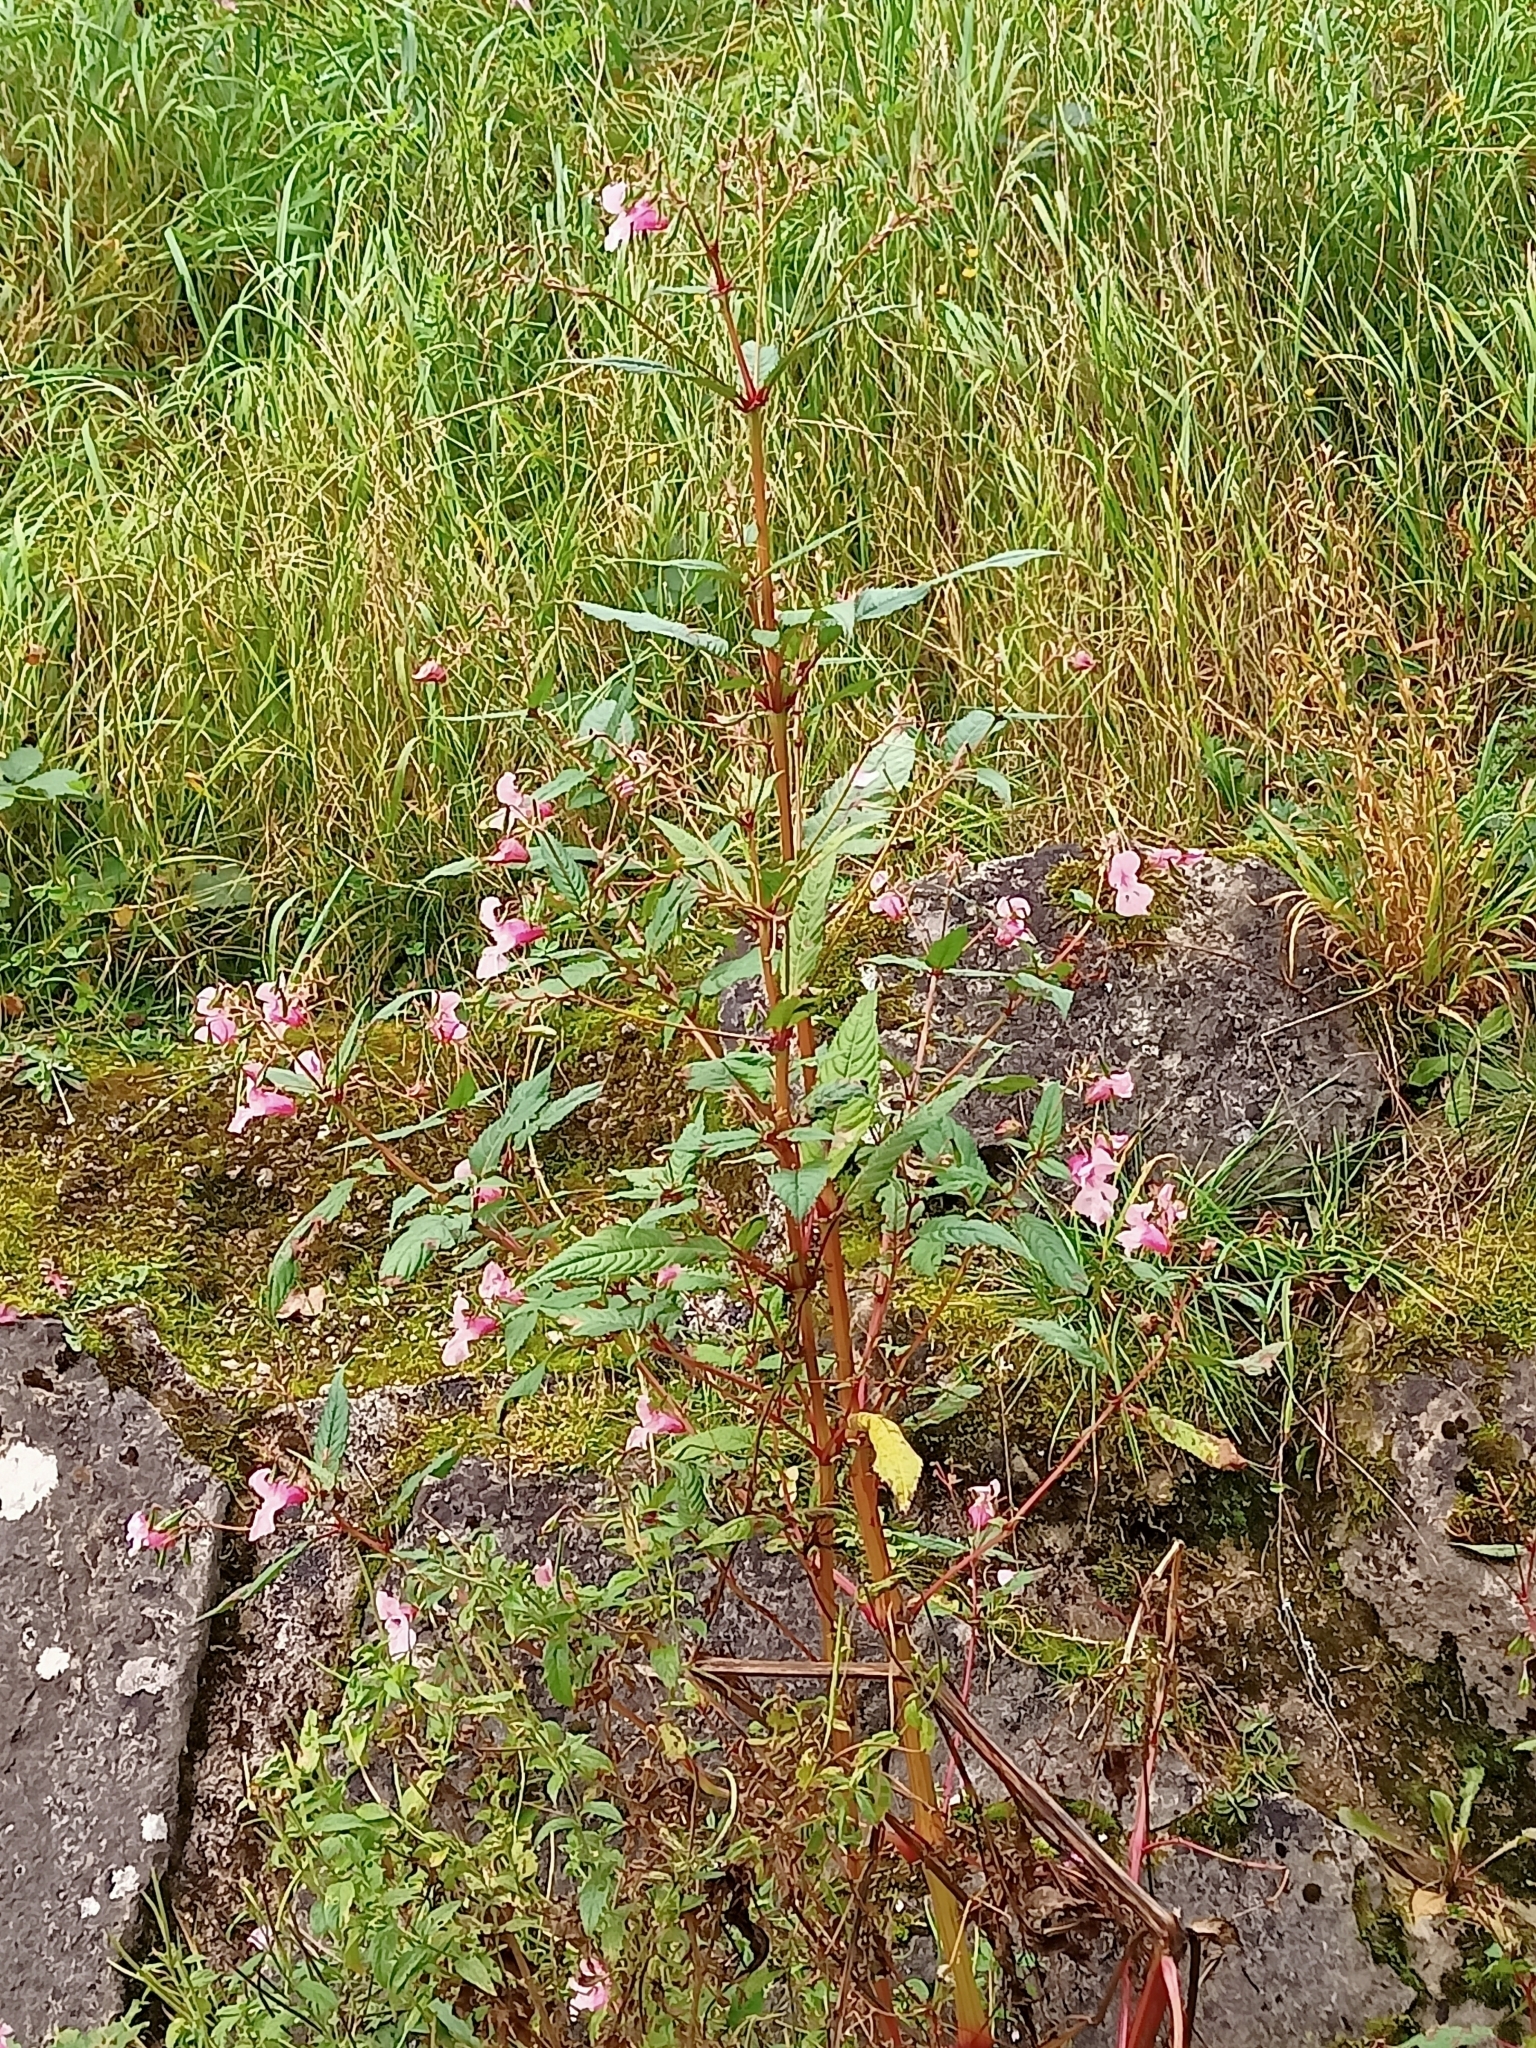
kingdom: Plantae
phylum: Tracheophyta
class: Magnoliopsida
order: Ericales
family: Balsaminaceae
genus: Impatiens
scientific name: Impatiens glandulifera
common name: Himalayan balsam
